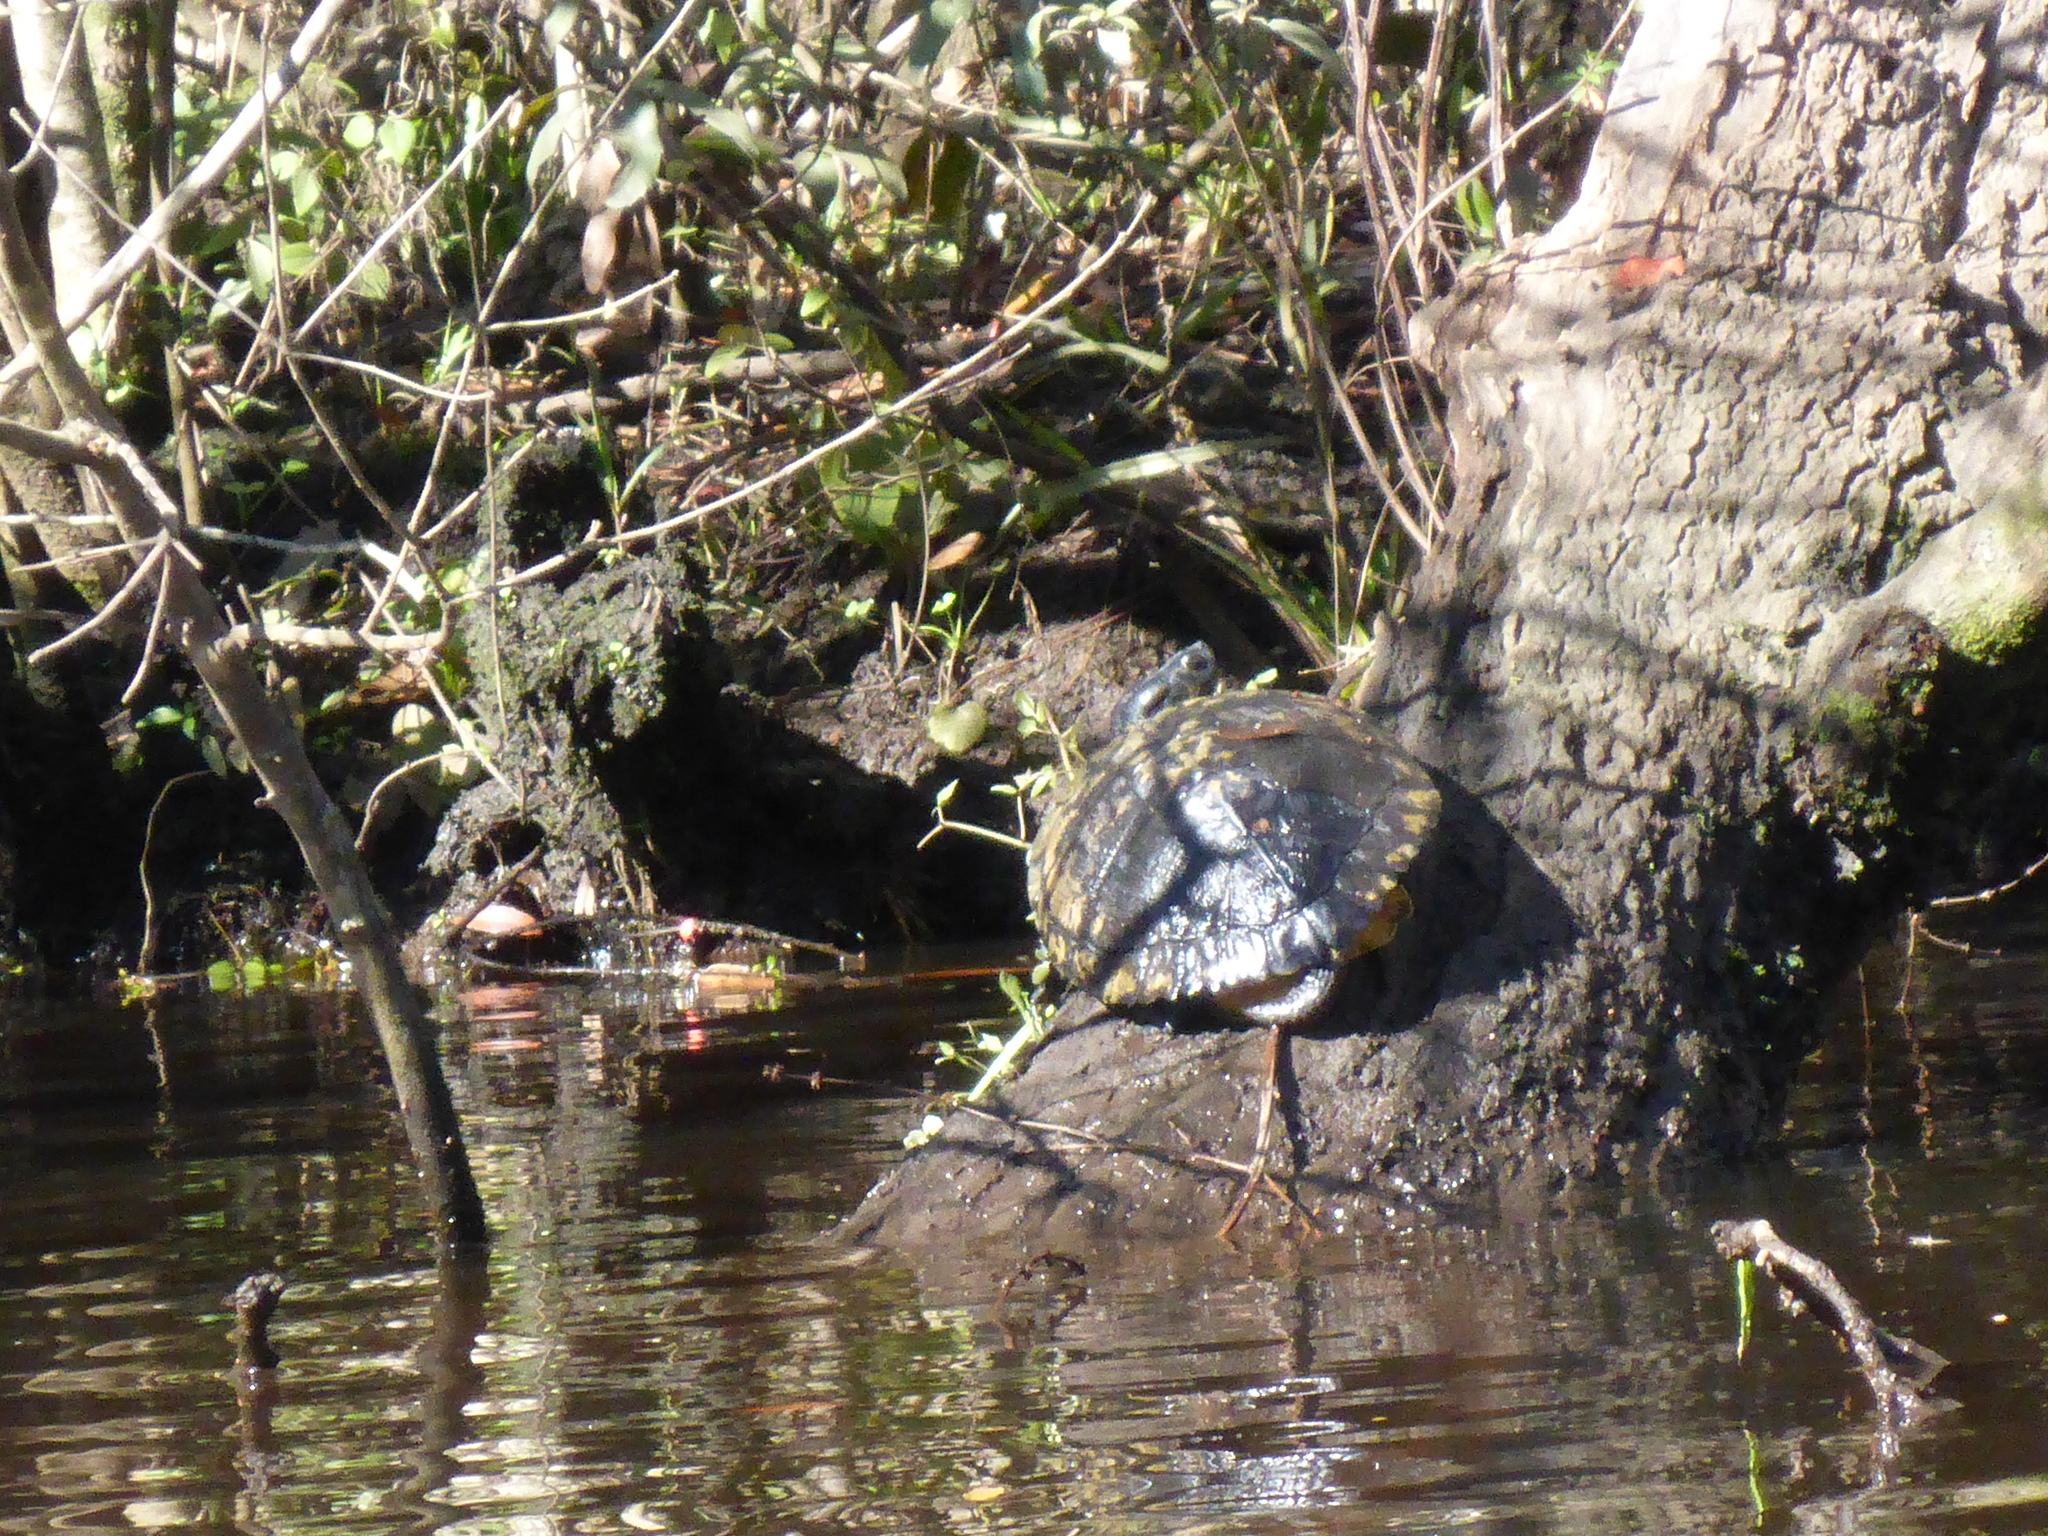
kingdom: Animalia
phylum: Chordata
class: Testudines
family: Emydidae
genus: Trachemys
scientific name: Trachemys scripta
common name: Slider
